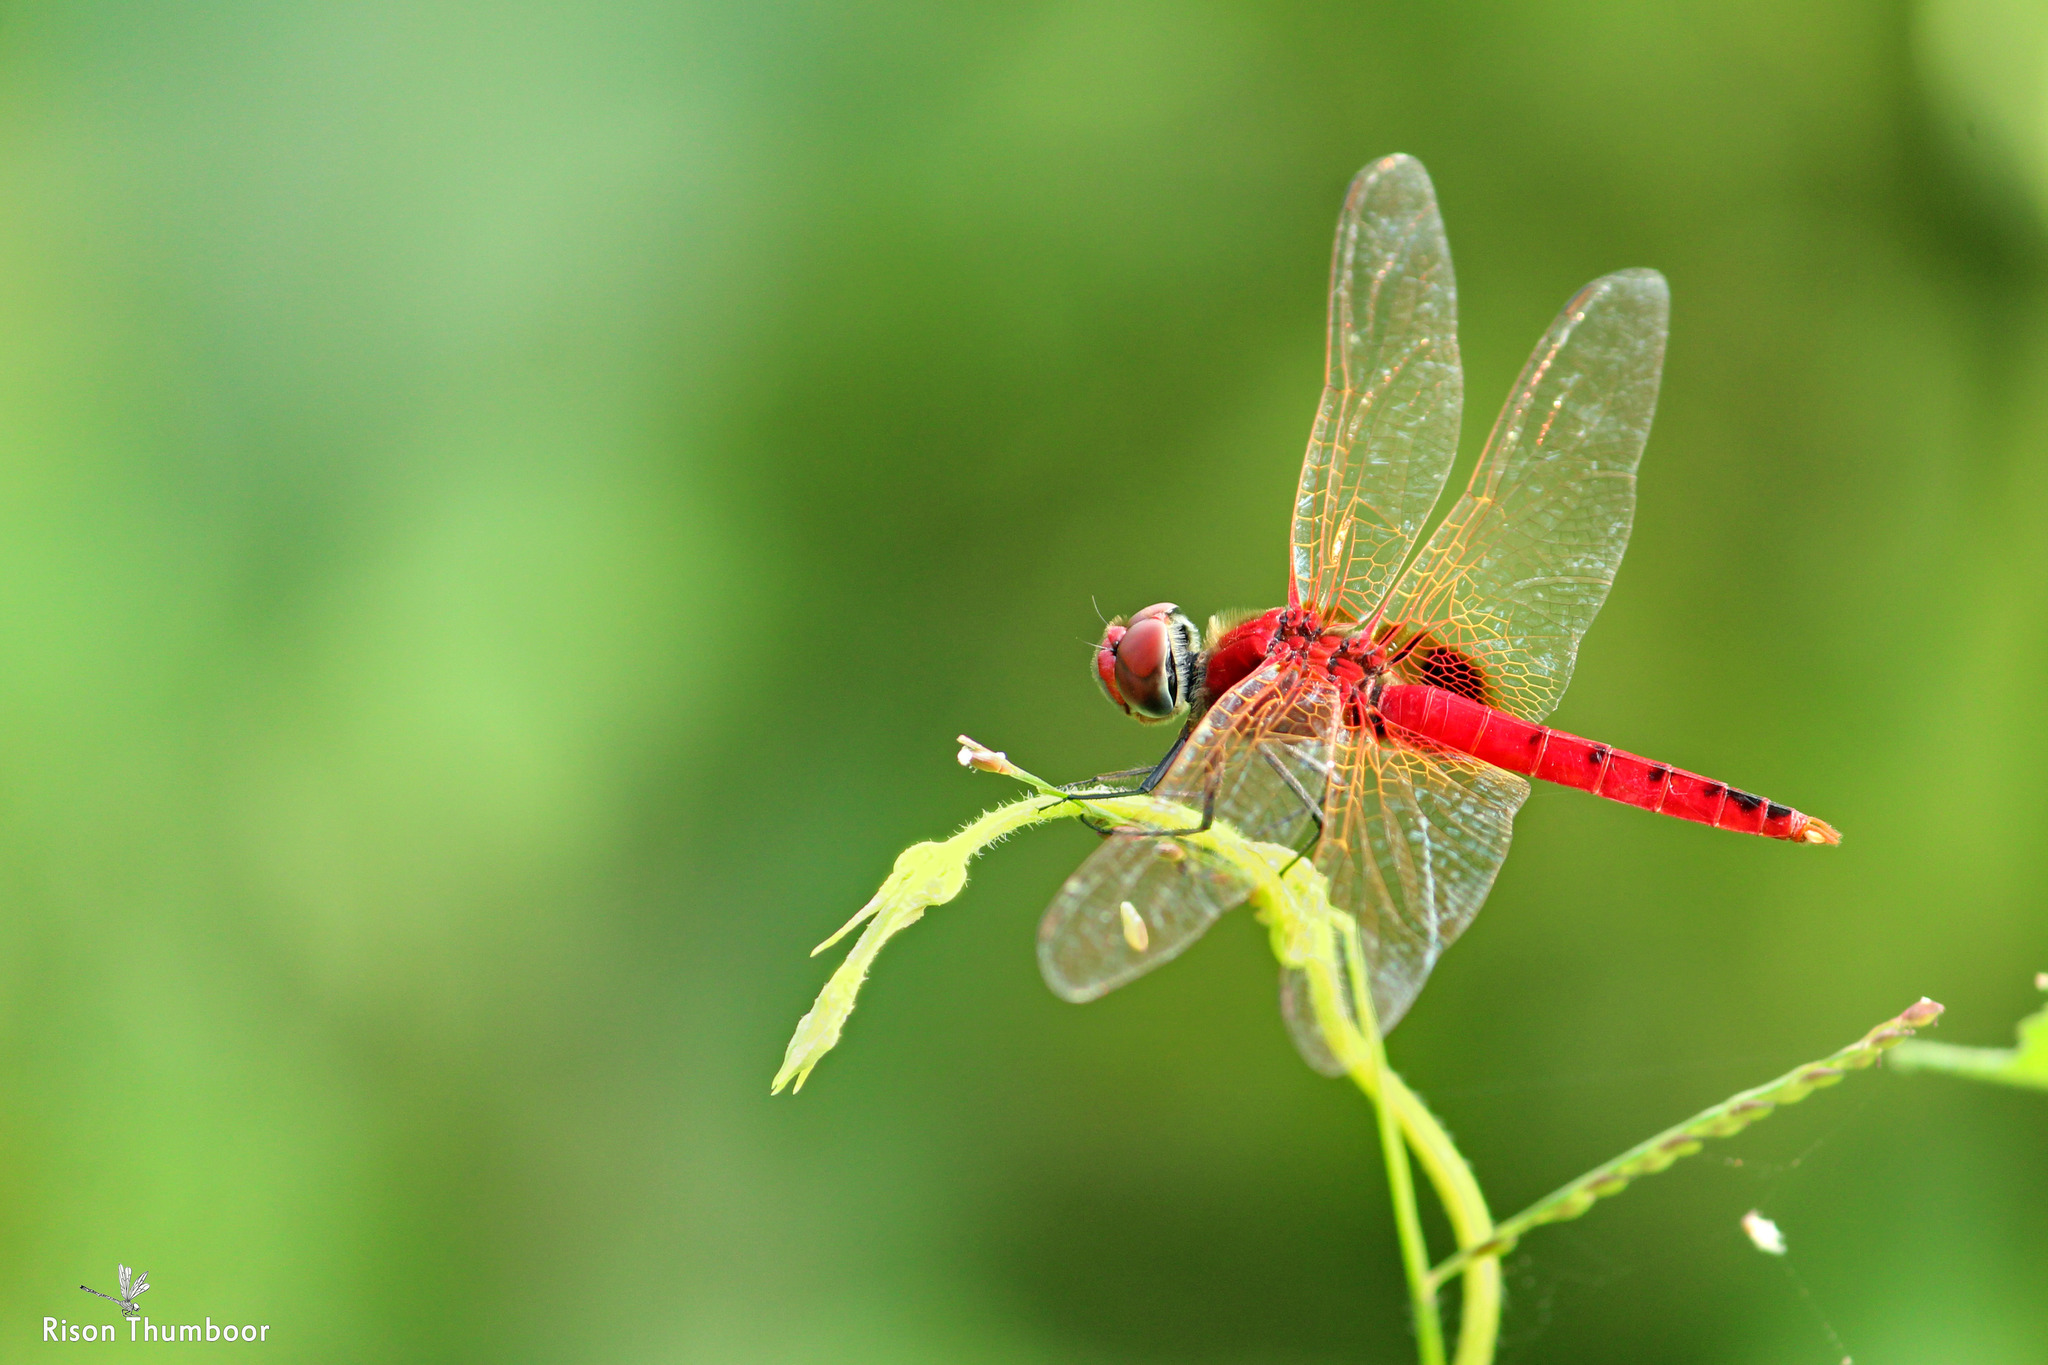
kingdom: Animalia
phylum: Arthropoda
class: Insecta
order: Odonata
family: Libellulidae
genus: Urothemis
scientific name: Urothemis signata
